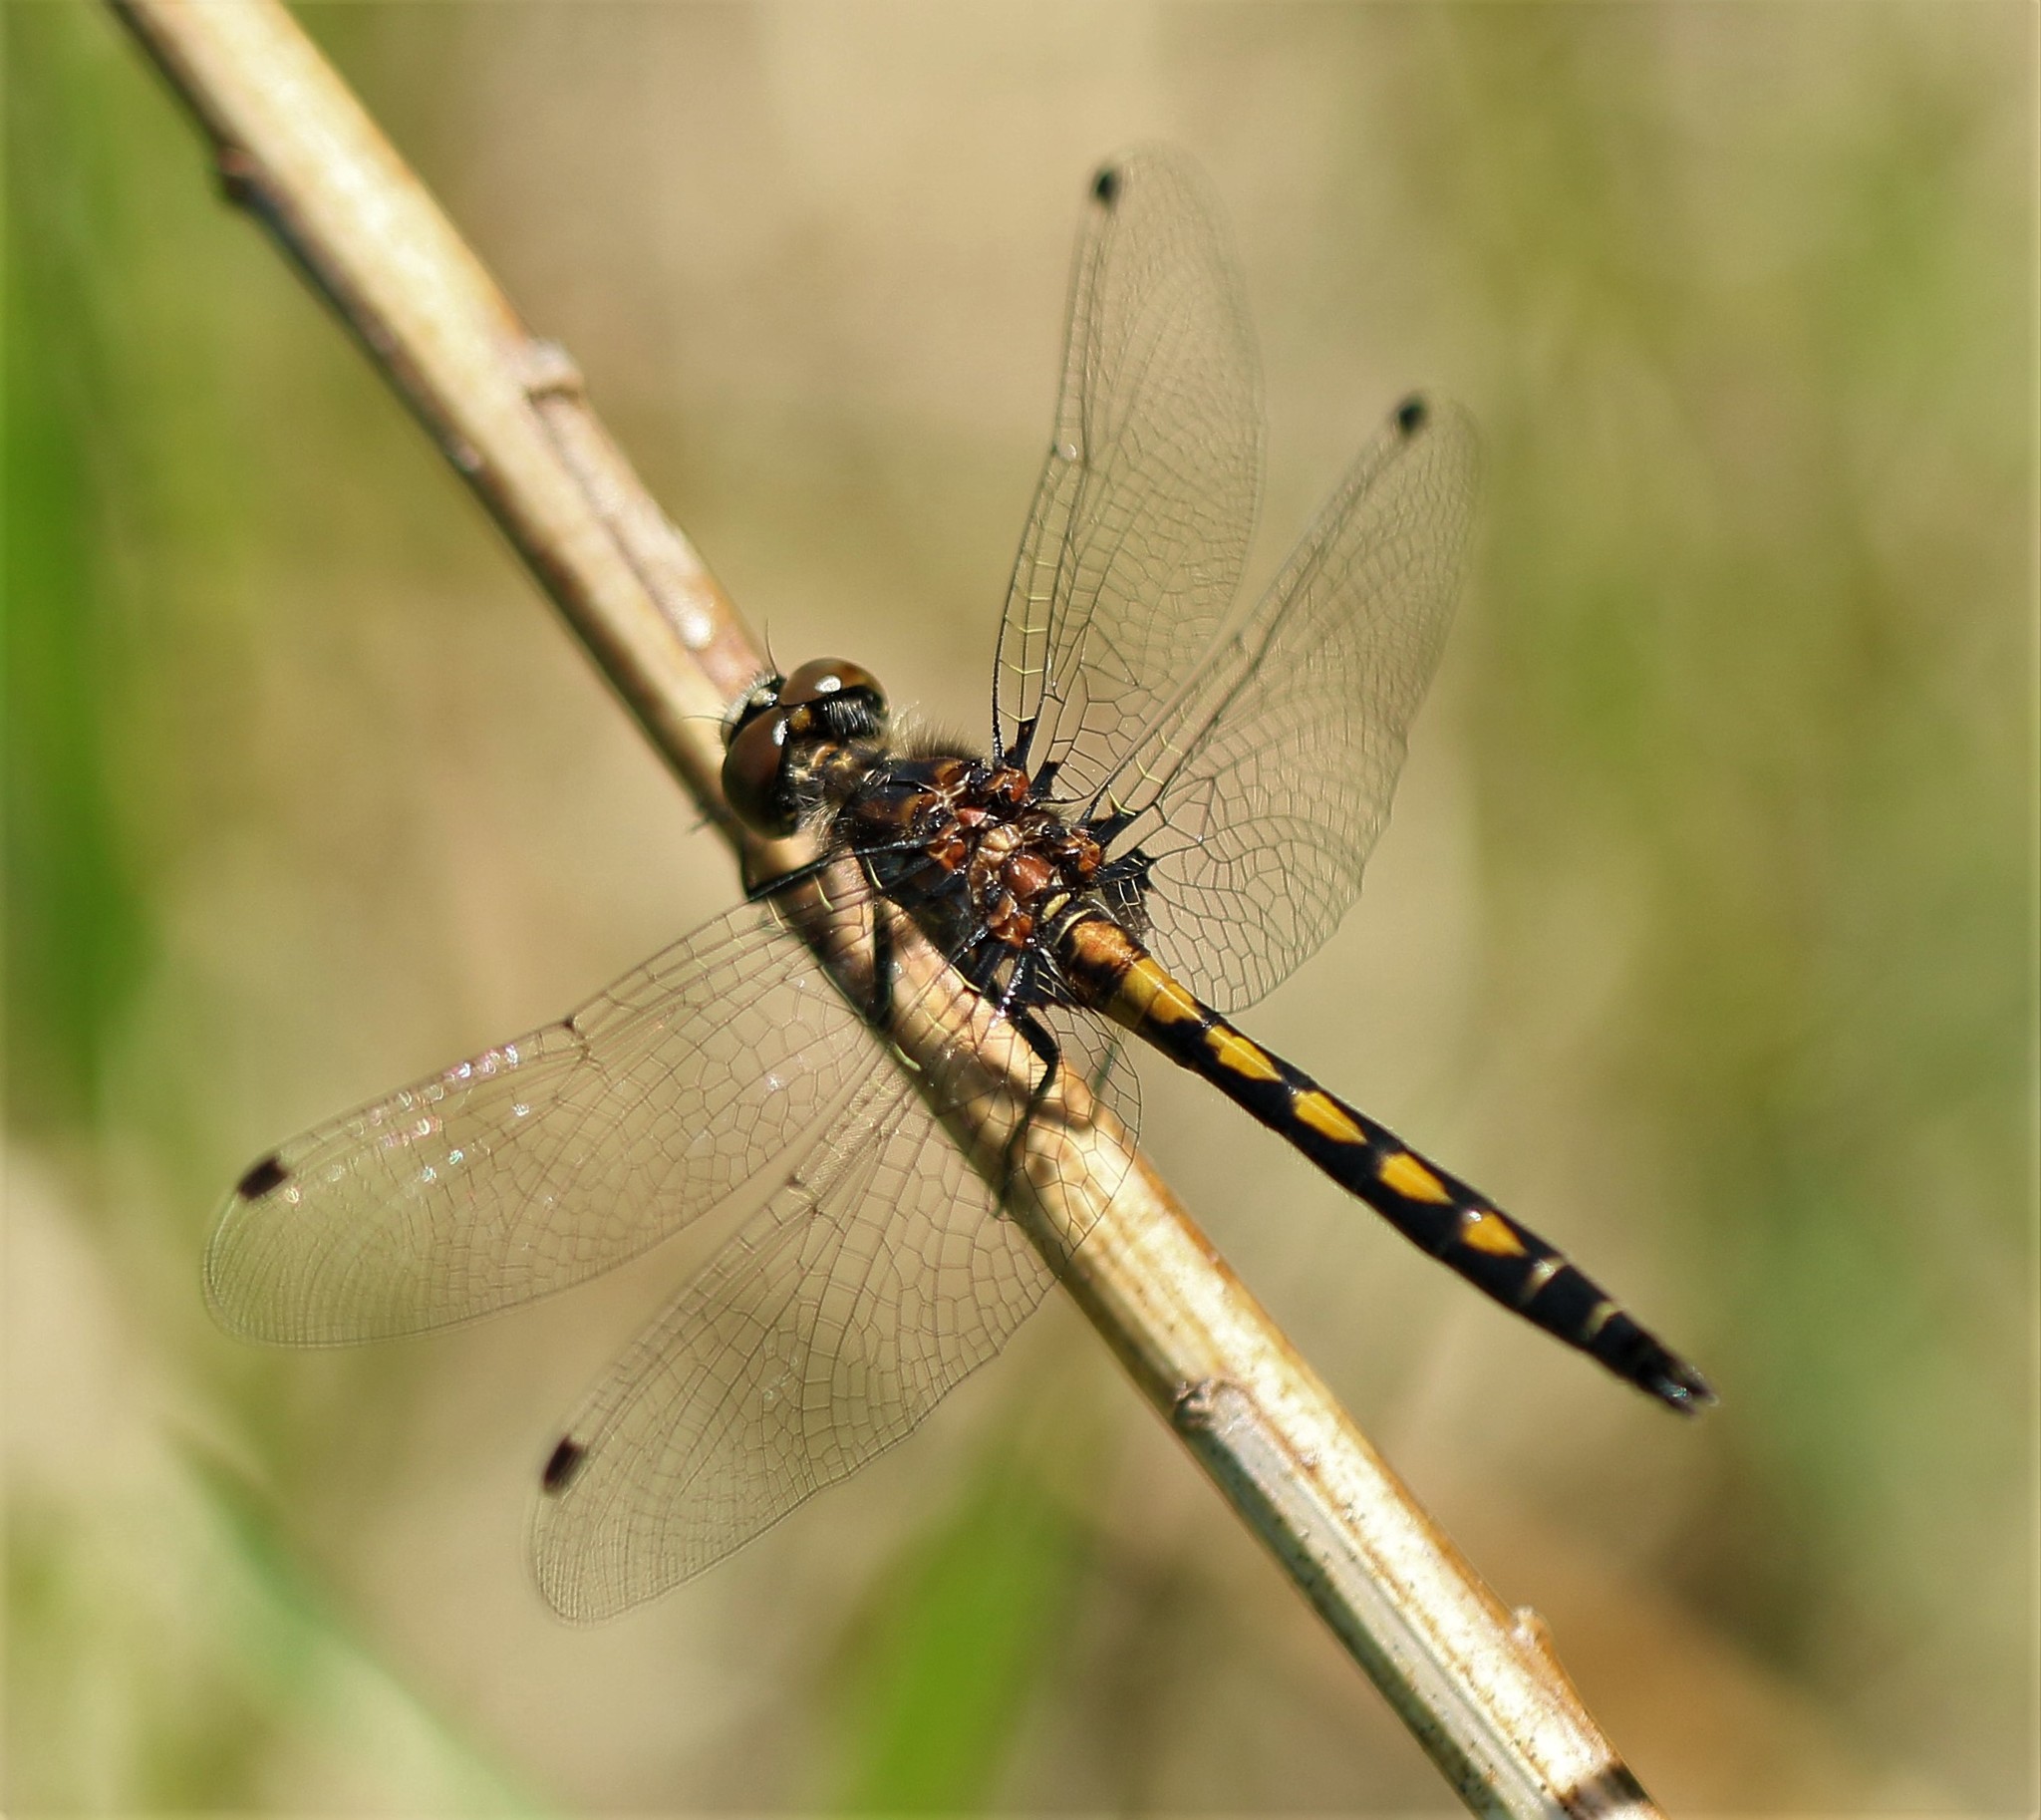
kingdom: Animalia
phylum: Arthropoda
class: Insecta
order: Odonata
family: Libellulidae
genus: Leucorrhinia
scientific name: Leucorrhinia hudsonica
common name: Hudsonian whiteface
